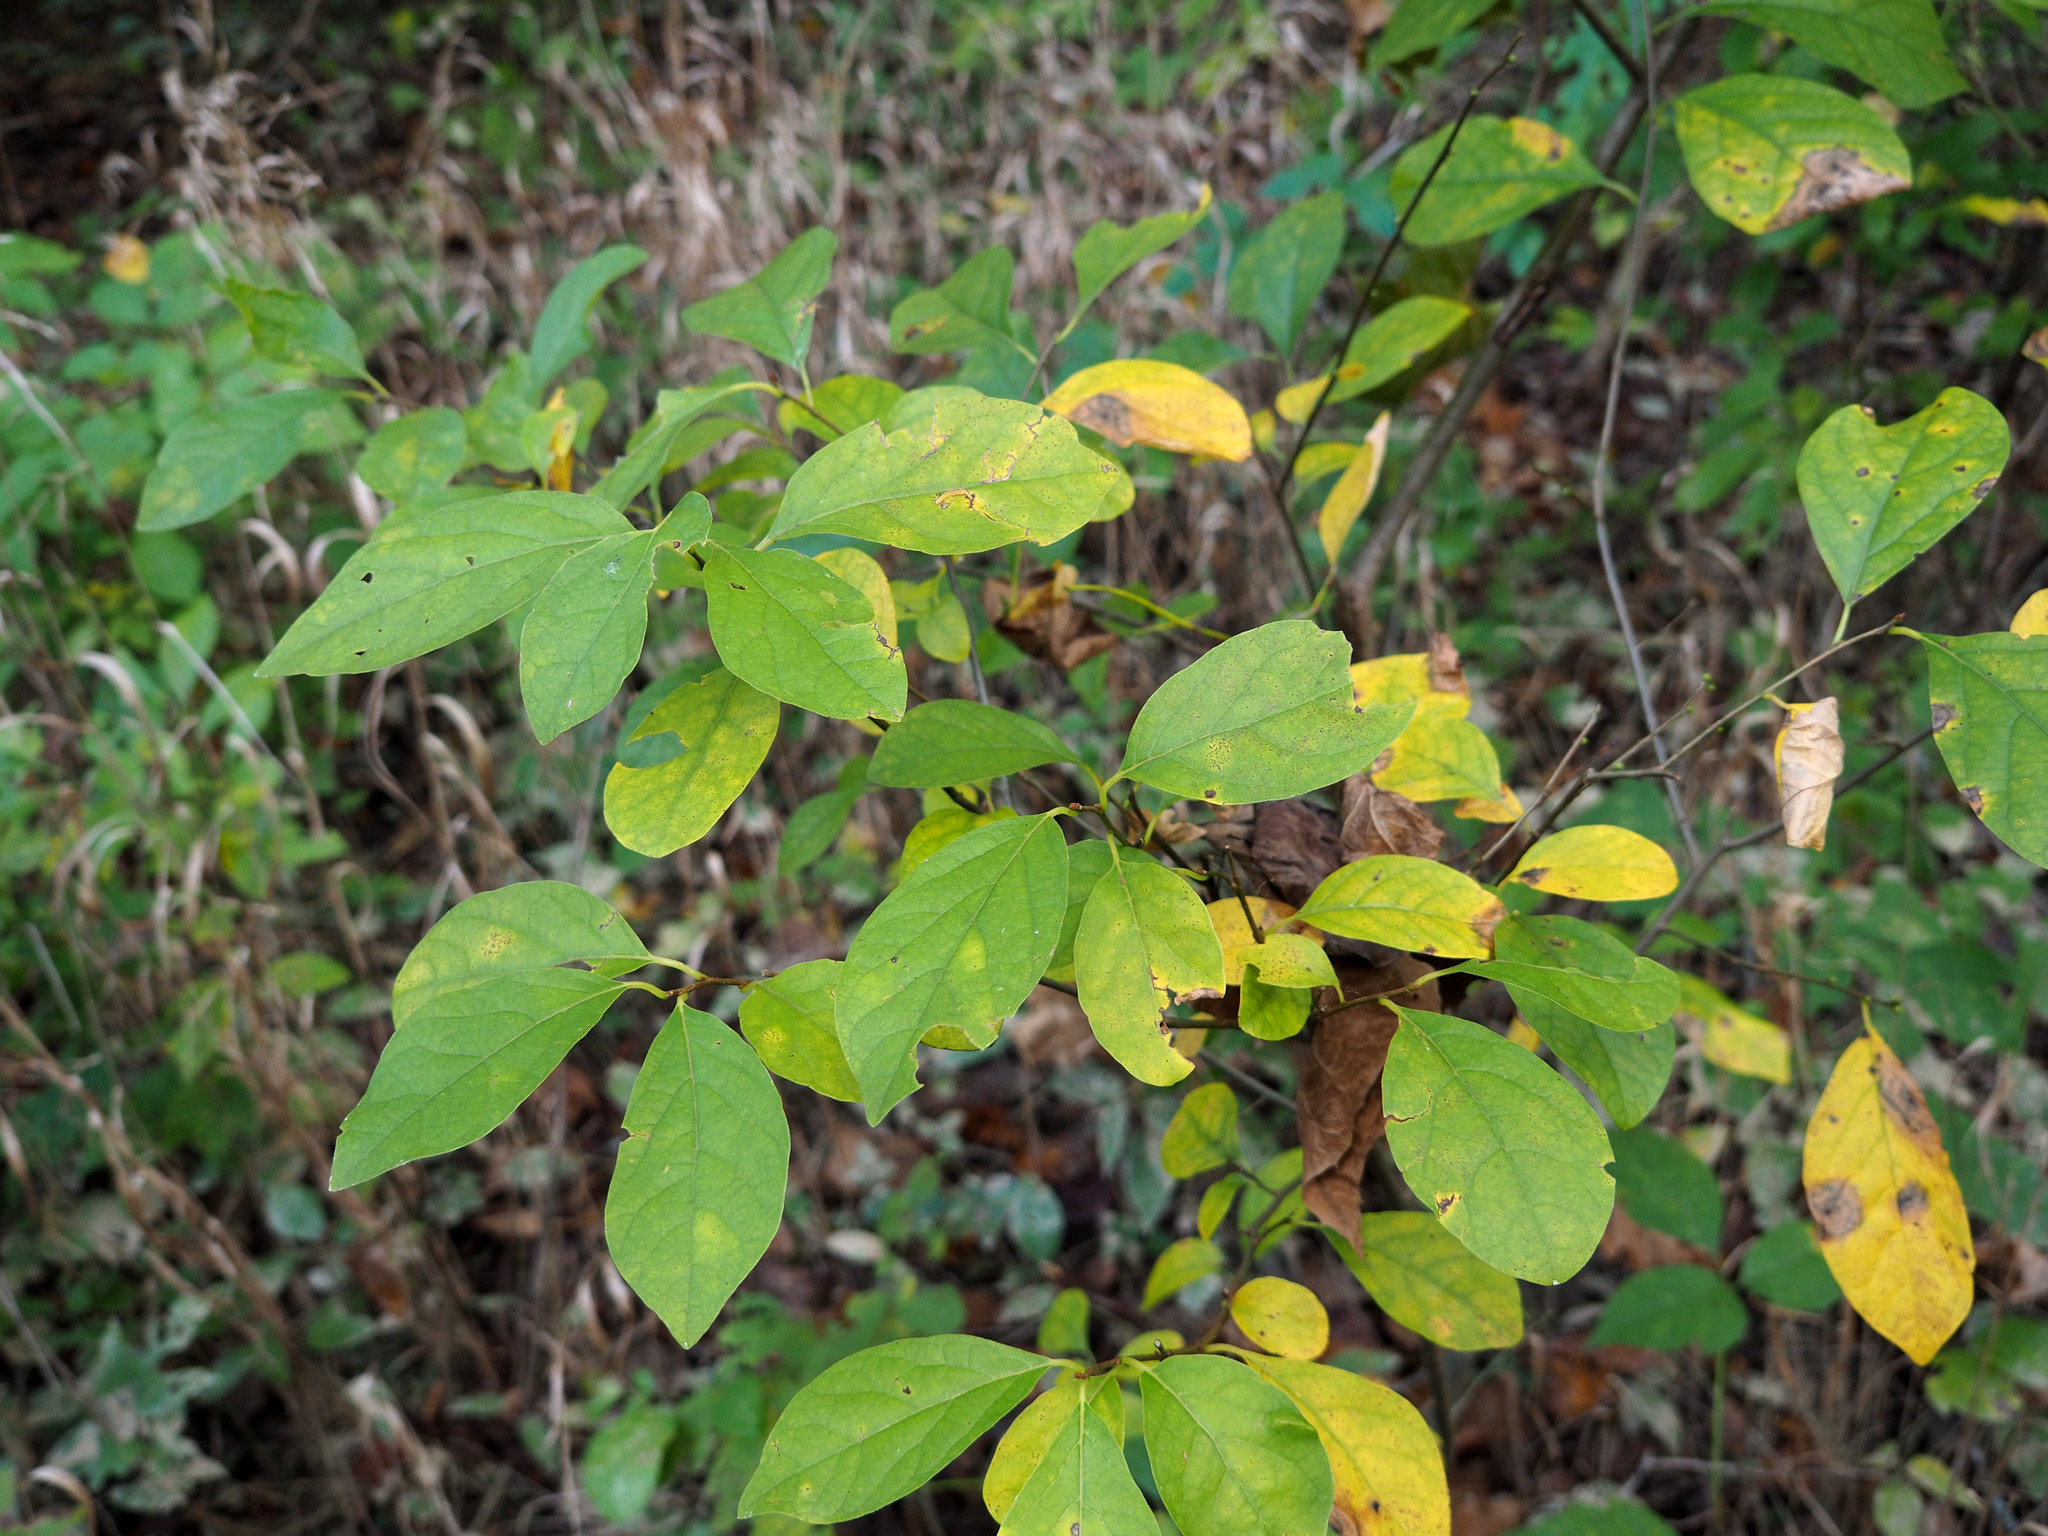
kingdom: Plantae
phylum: Tracheophyta
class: Magnoliopsida
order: Laurales
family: Lauraceae
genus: Lindera
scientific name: Lindera benzoin
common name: Spicebush
